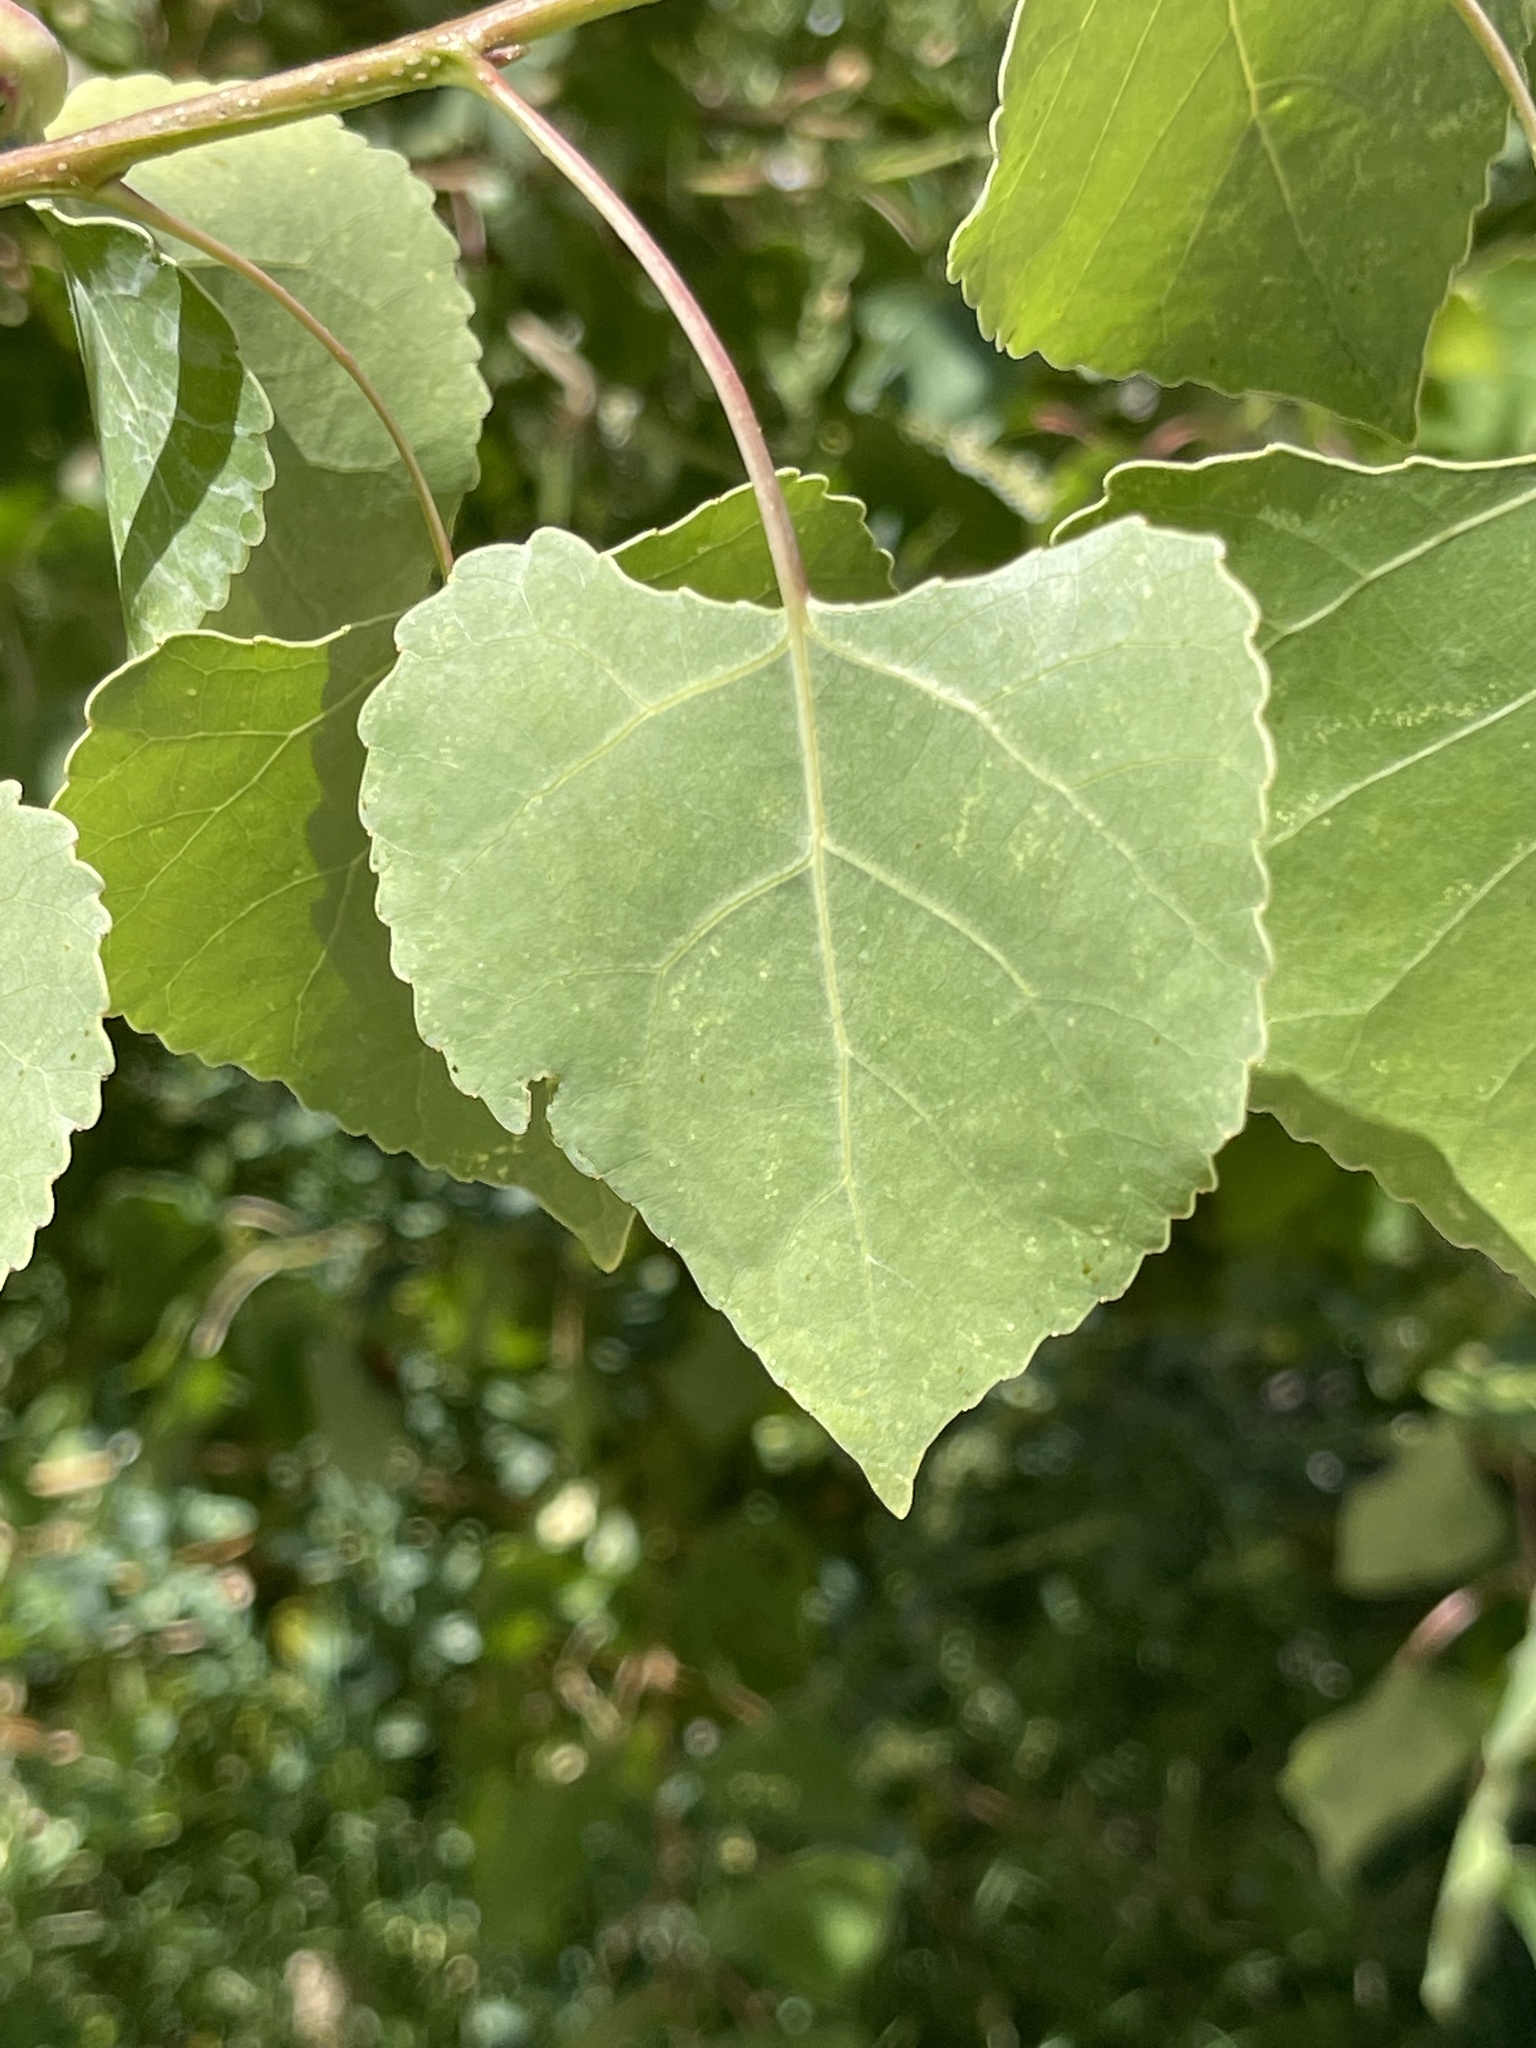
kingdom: Plantae
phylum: Tracheophyta
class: Magnoliopsida
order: Malpighiales
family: Salicaceae
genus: Populus
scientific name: Populus fremontii
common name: Fremont's cottonwood
